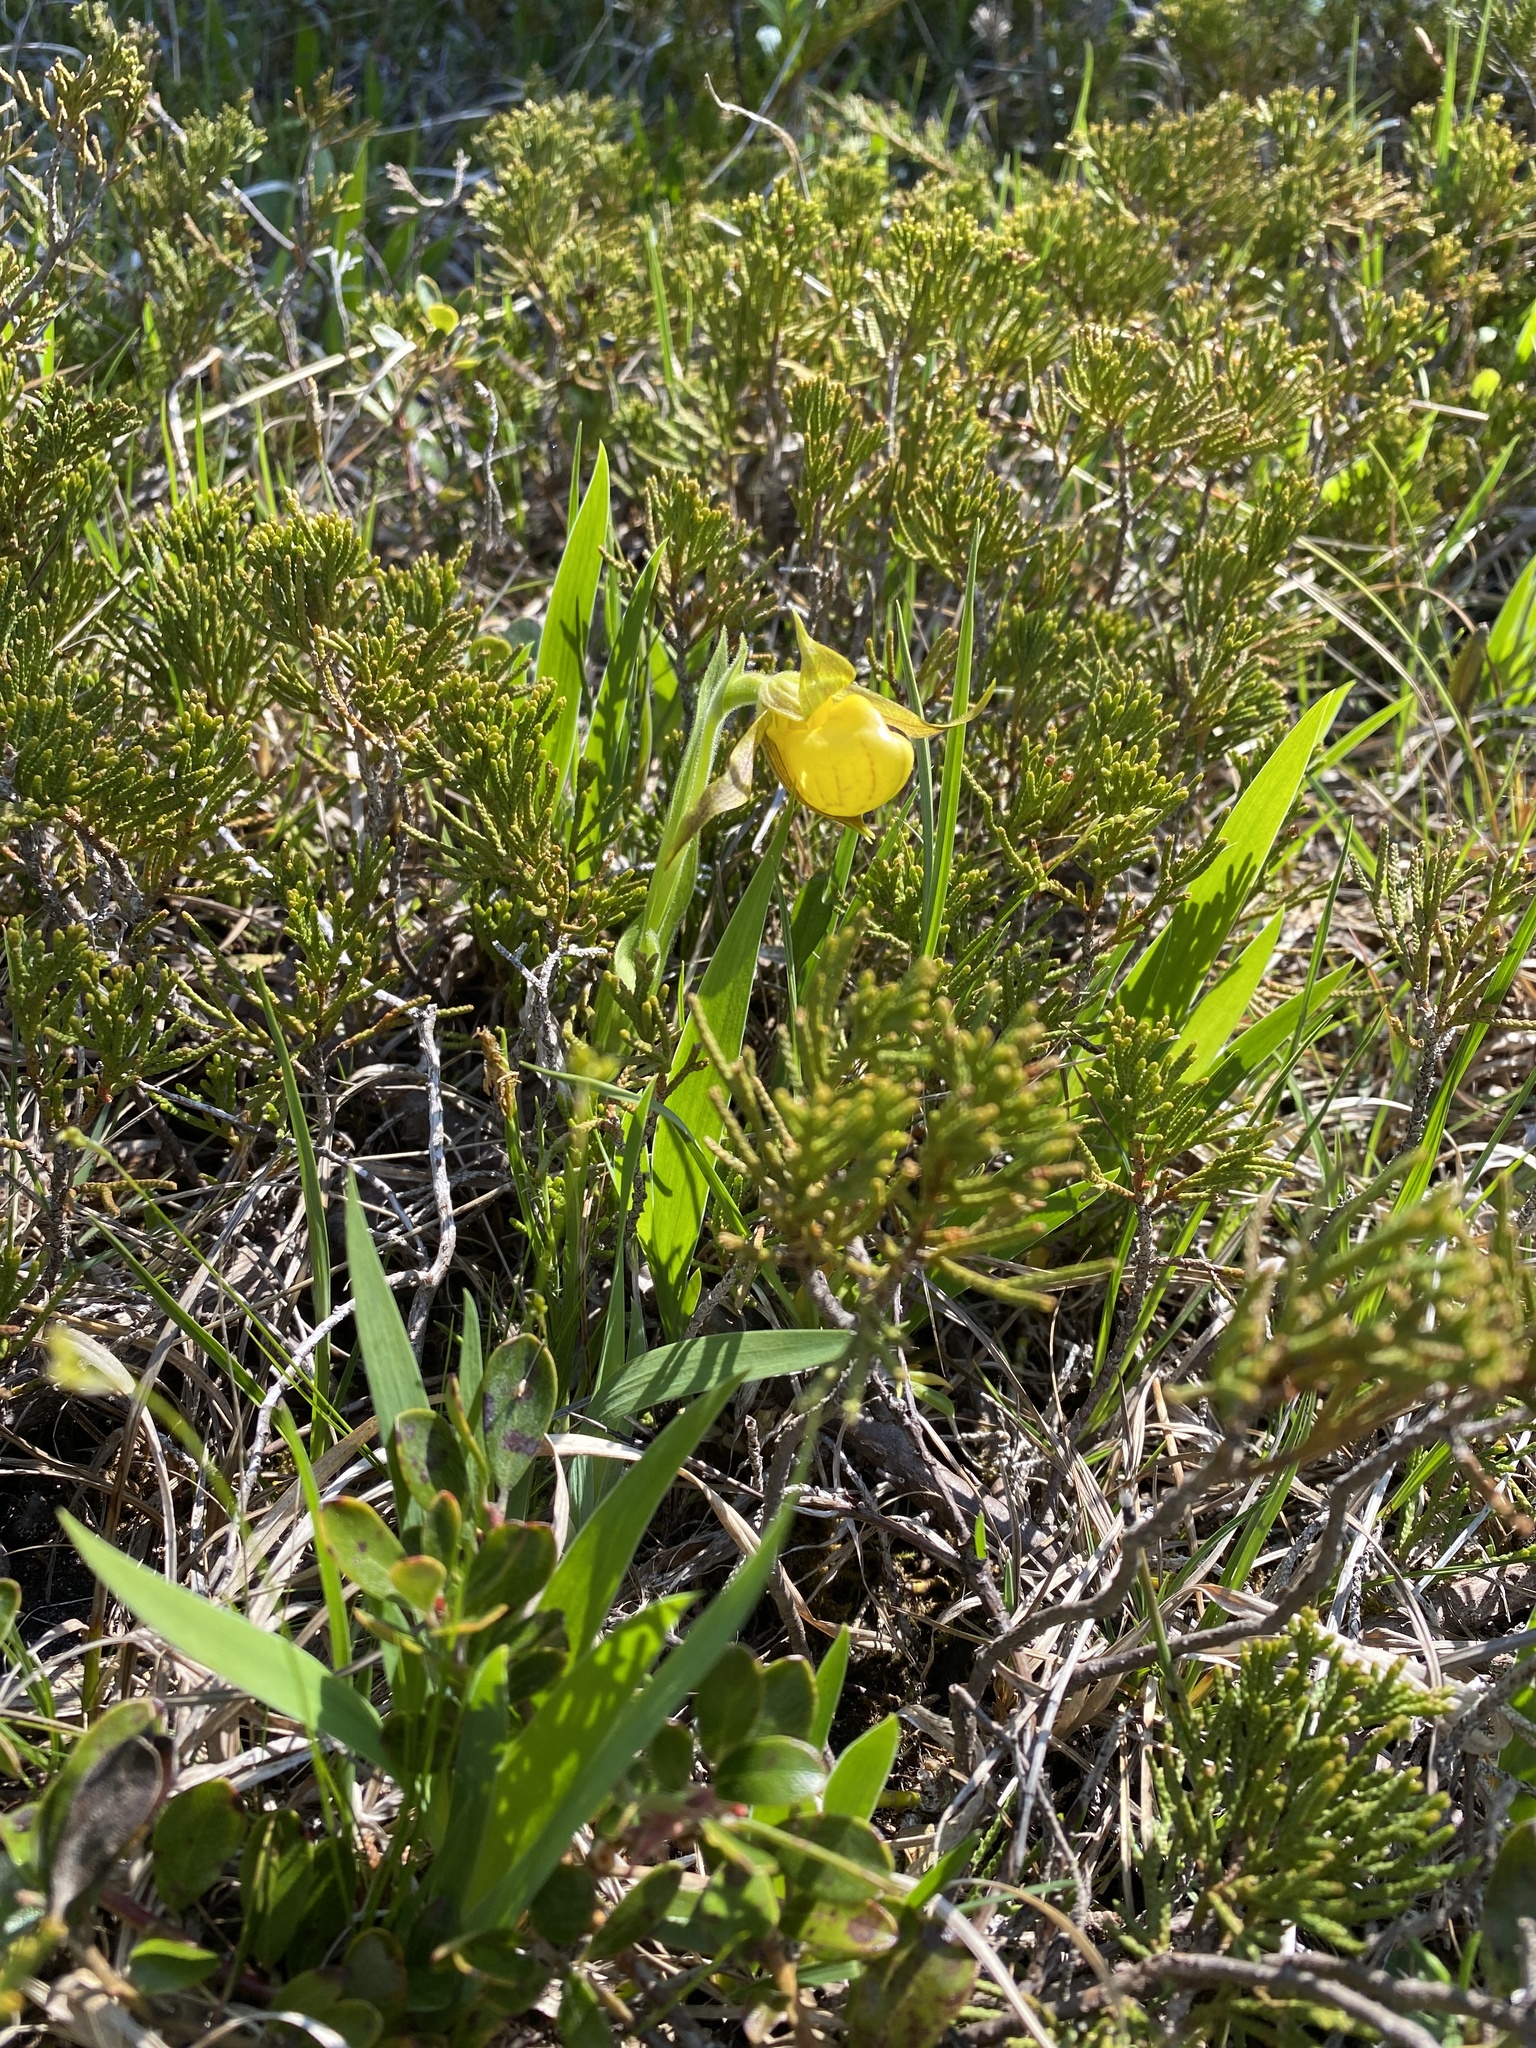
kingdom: Plantae
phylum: Tracheophyta
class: Liliopsida
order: Asparagales
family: Orchidaceae
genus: Cypripedium
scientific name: Cypripedium parviflorum
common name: American yellow lady's-slipper
